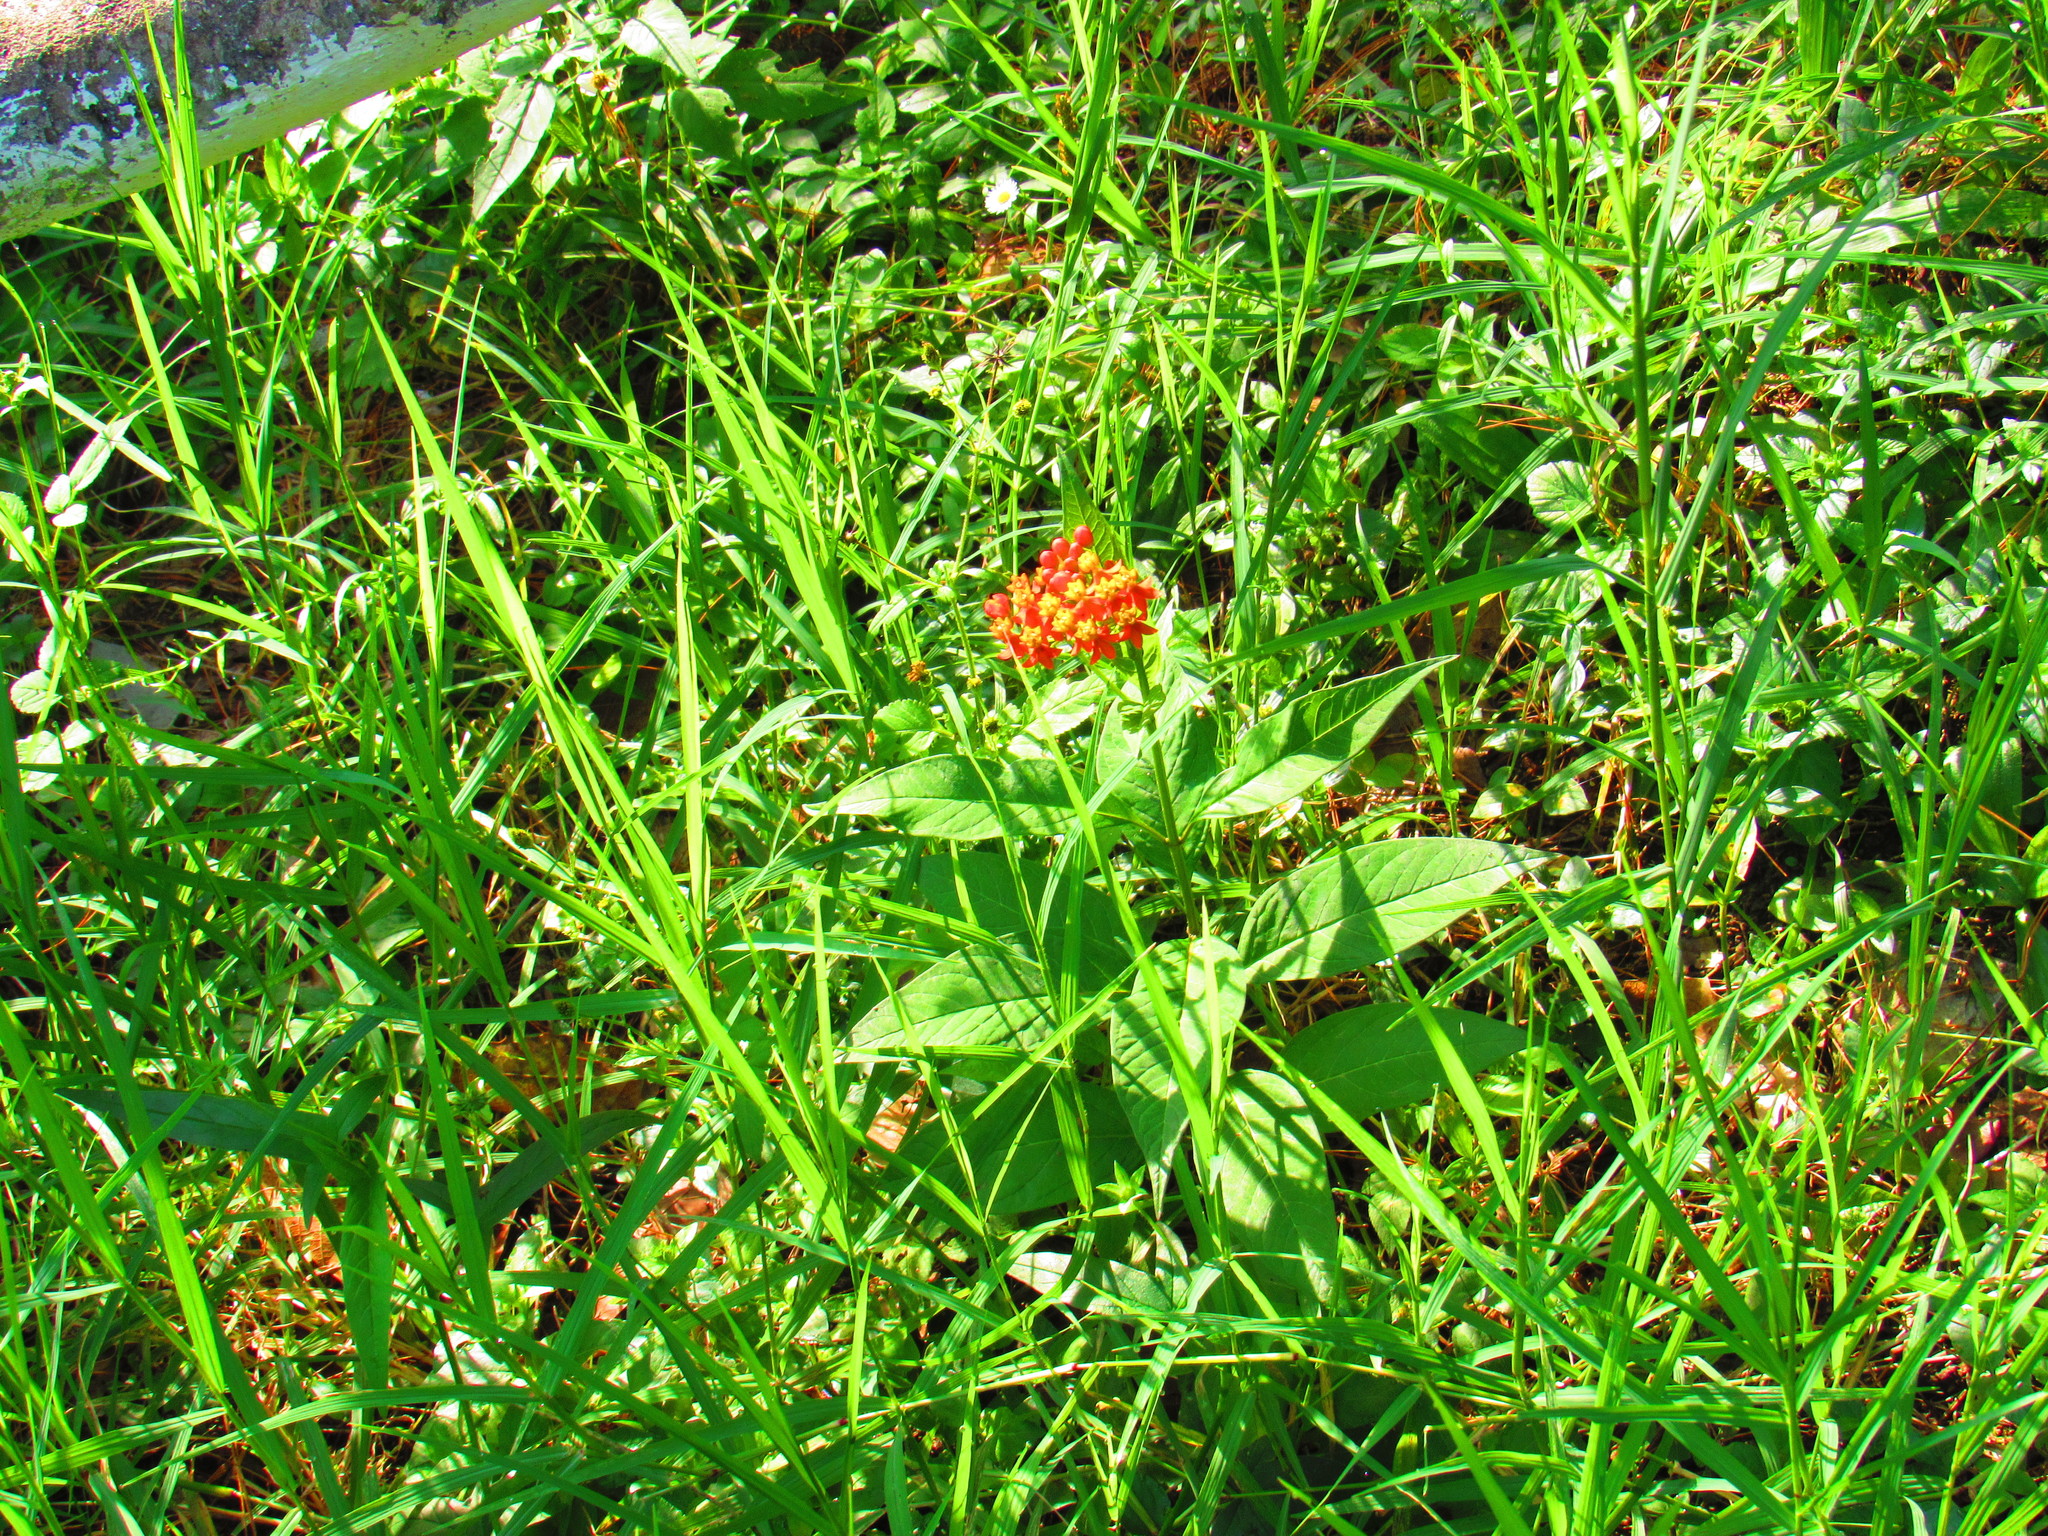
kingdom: Plantae
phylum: Tracheophyta
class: Magnoliopsida
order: Gentianales
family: Apocynaceae
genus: Asclepias
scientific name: Asclepias curassavica
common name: Bloodflower
